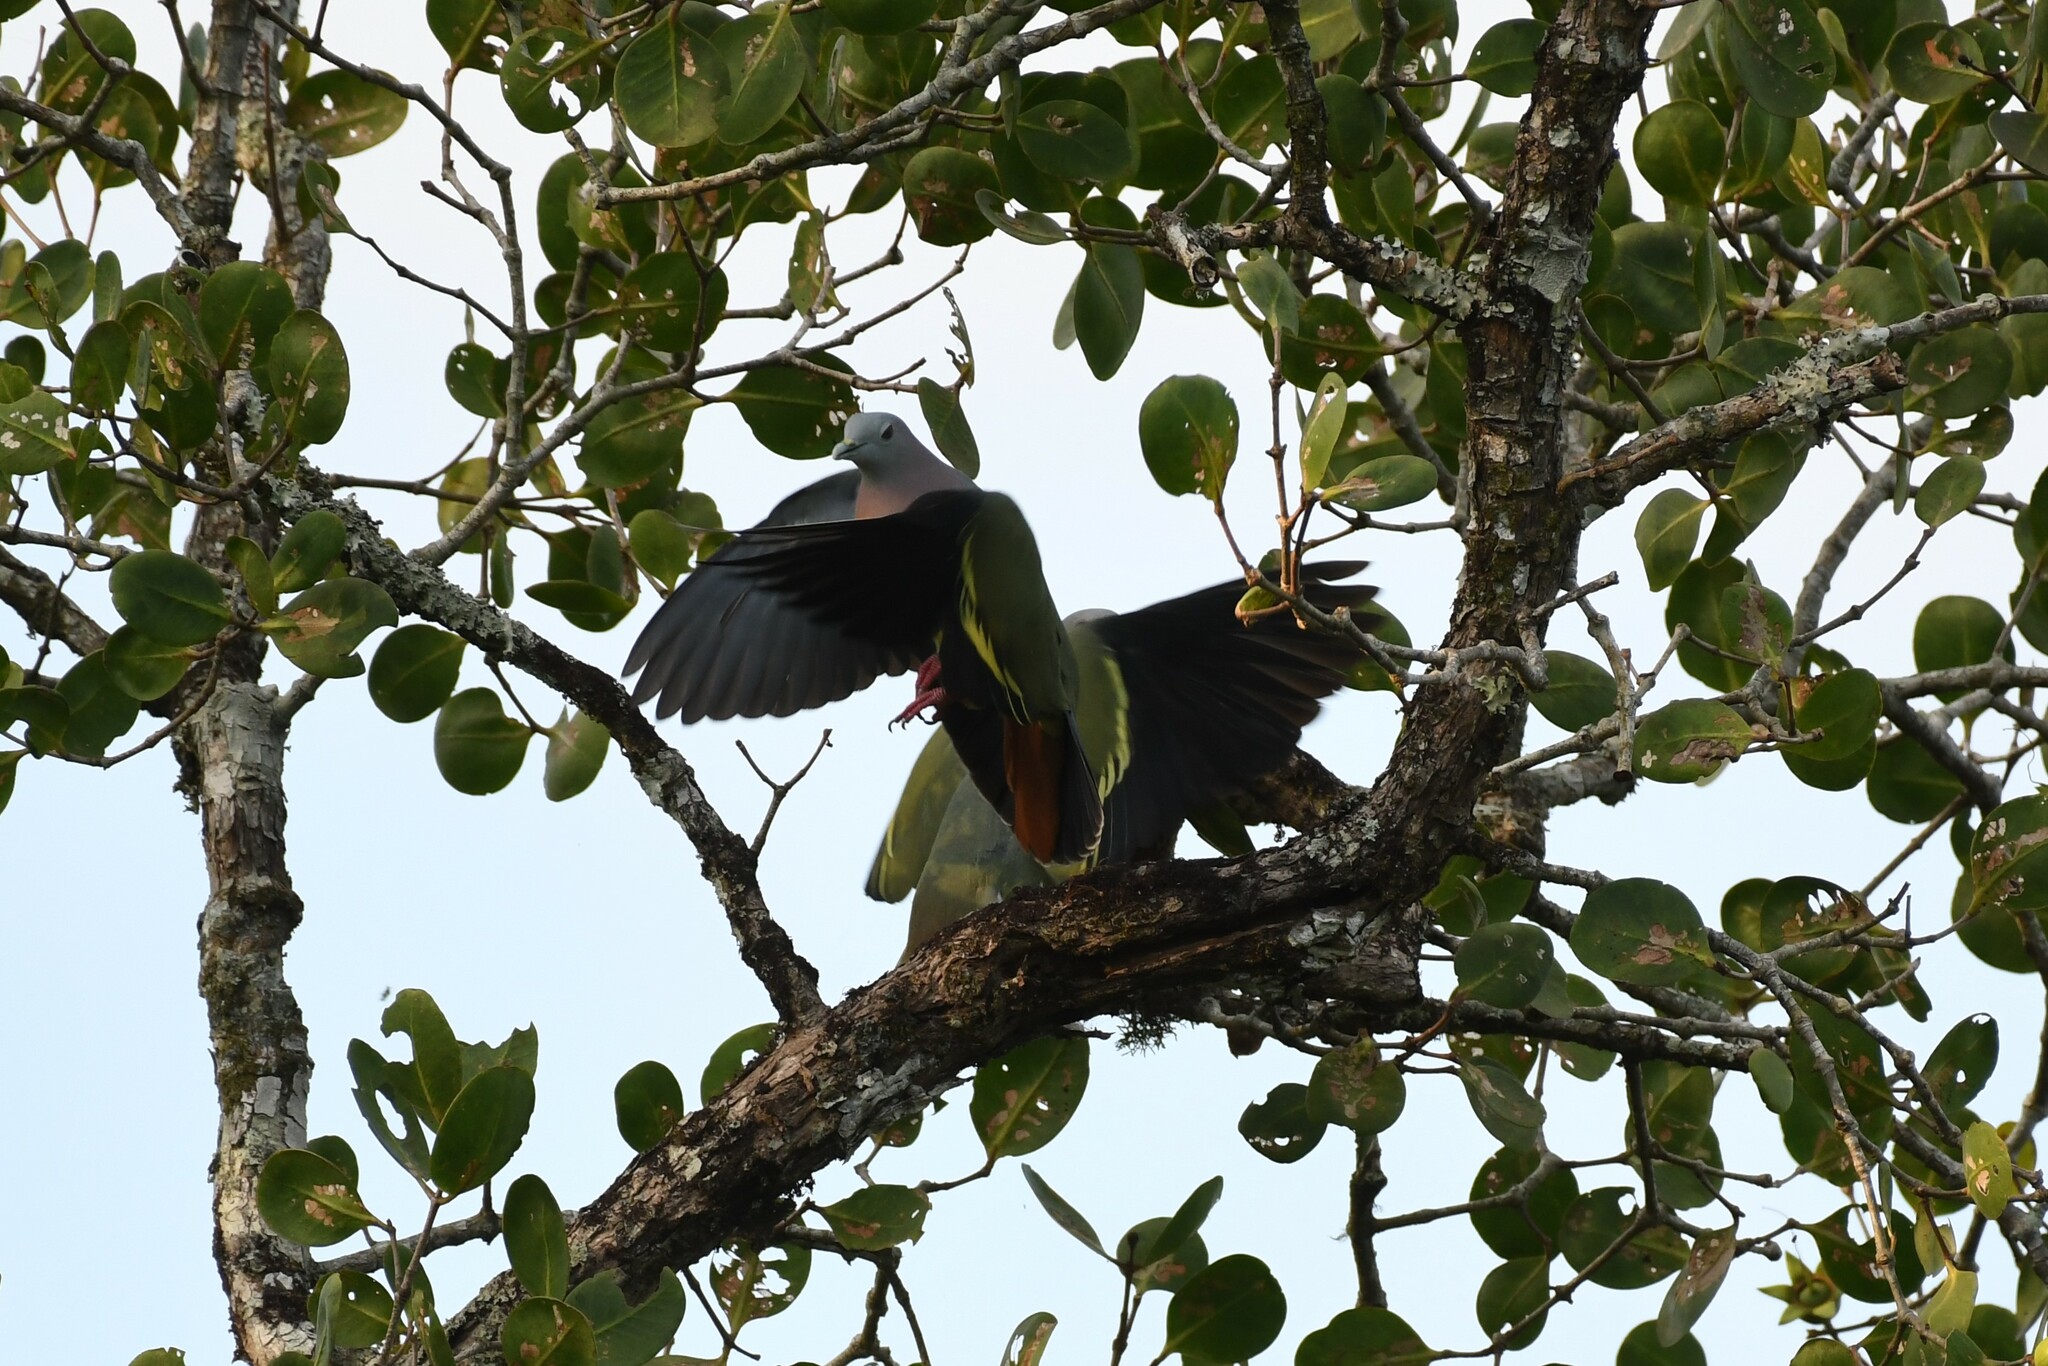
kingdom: Animalia
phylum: Chordata
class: Aves
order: Columbiformes
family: Columbidae
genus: Treron
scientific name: Treron vernans
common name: Pink-necked green pigeon
